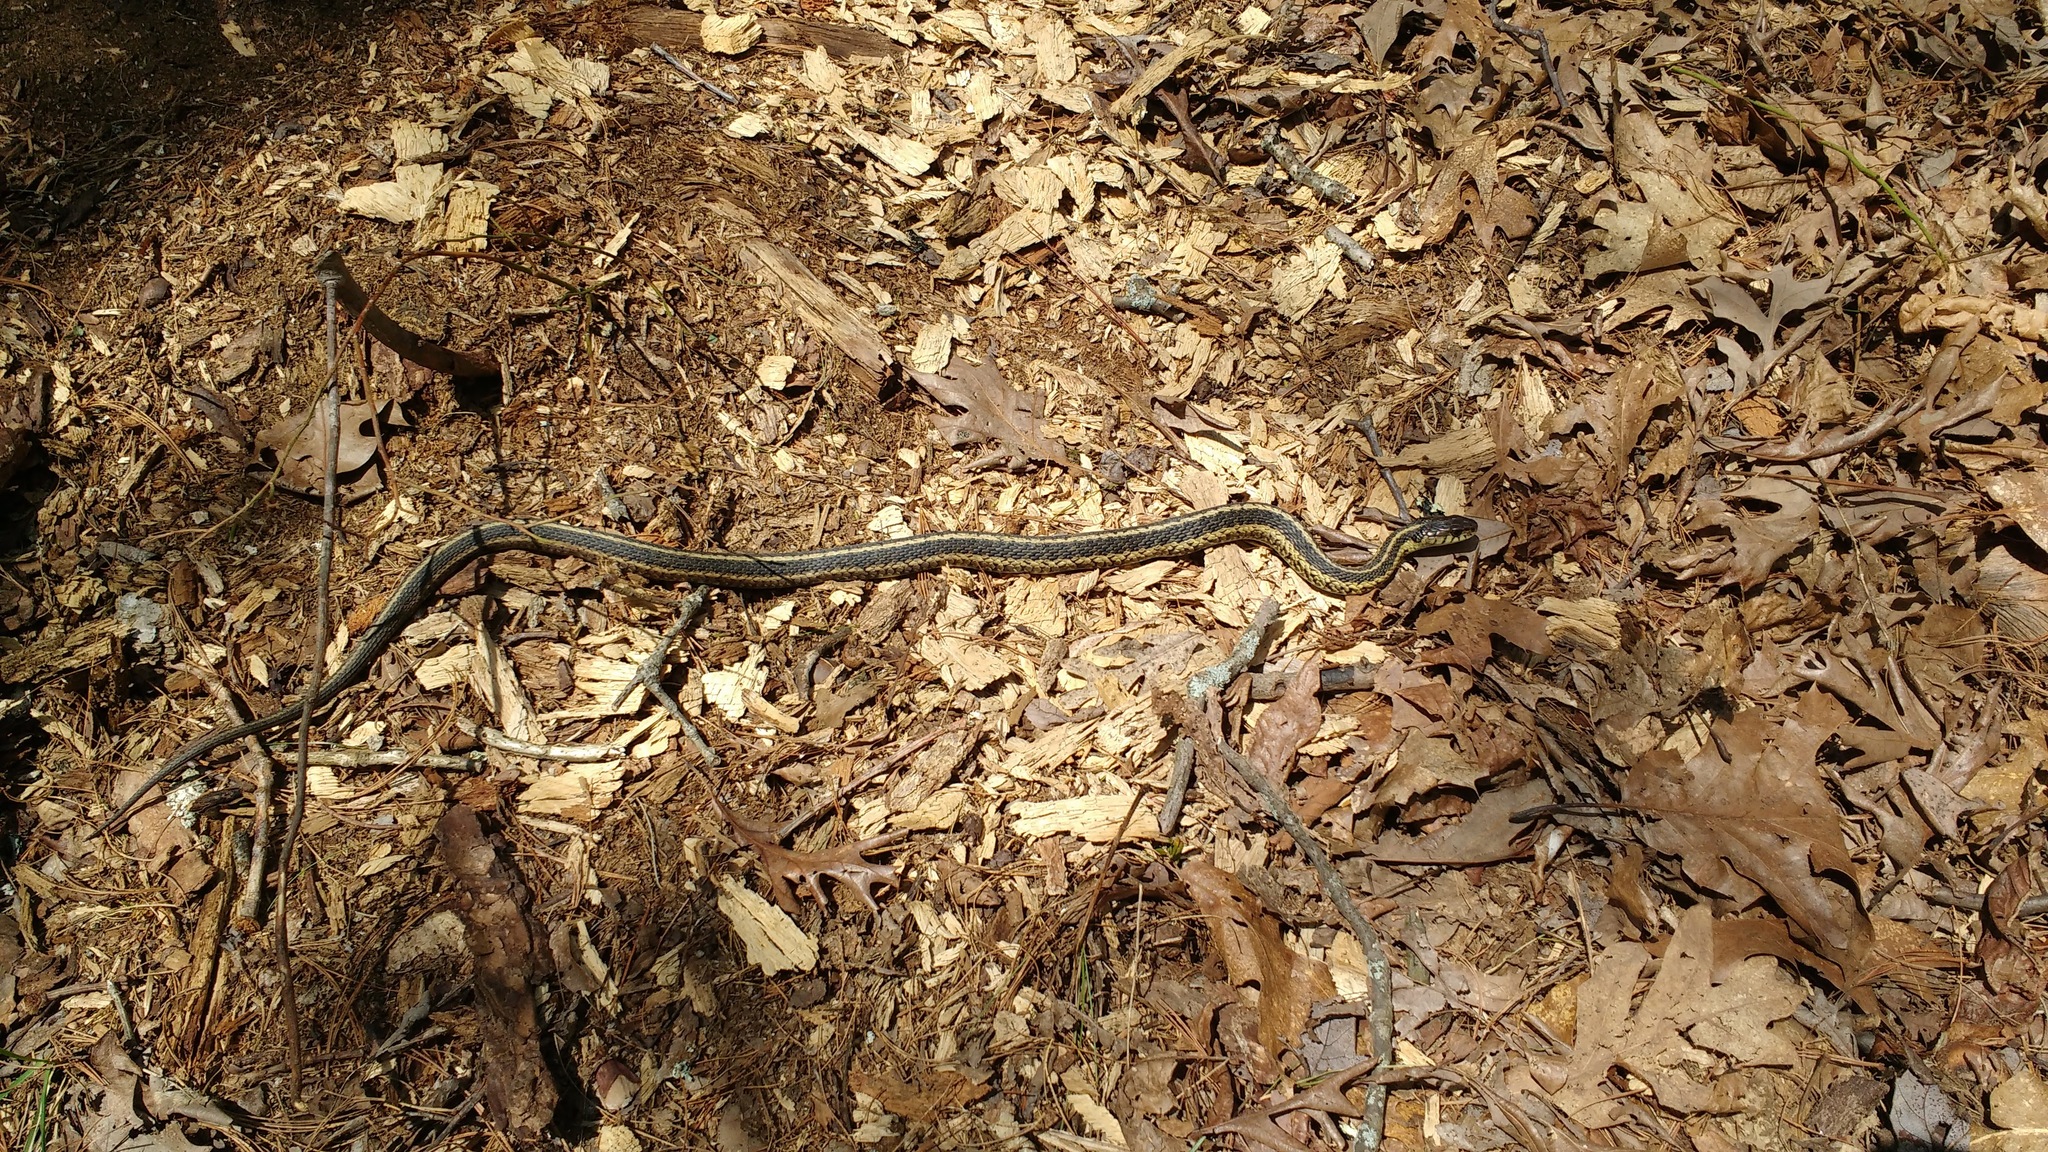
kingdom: Animalia
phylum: Chordata
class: Squamata
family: Colubridae
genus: Thamnophis
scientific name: Thamnophis sirtalis
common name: Common garter snake
